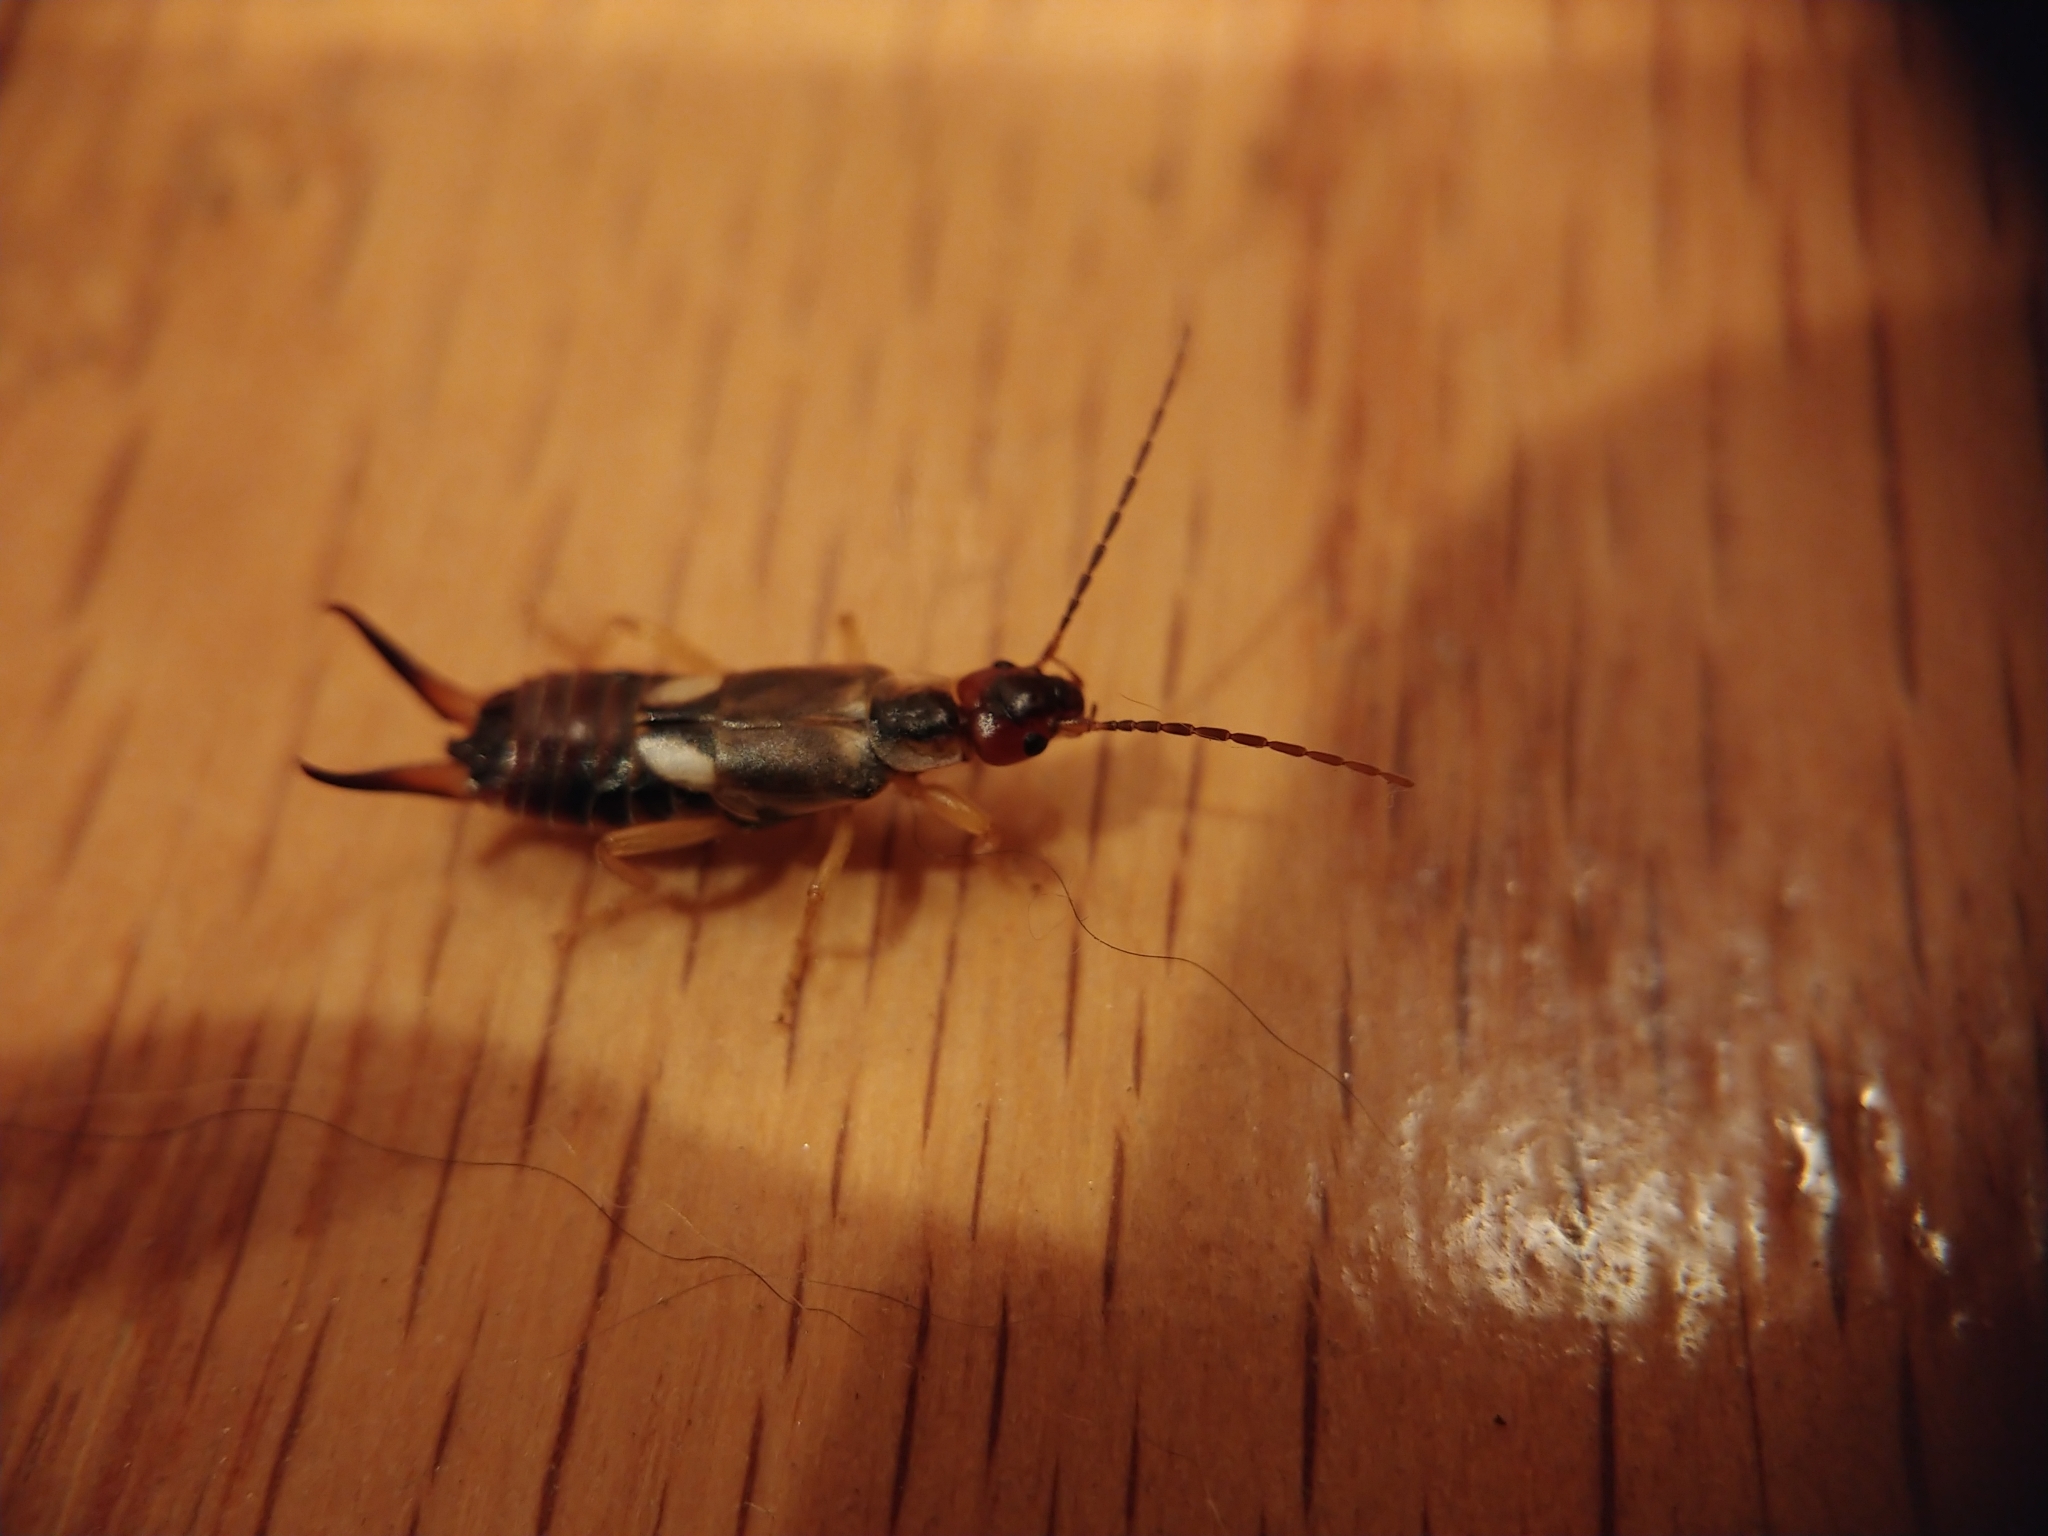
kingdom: Animalia
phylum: Arthropoda
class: Insecta
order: Dermaptera
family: Forficulidae
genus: Forficula
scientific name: Forficula
